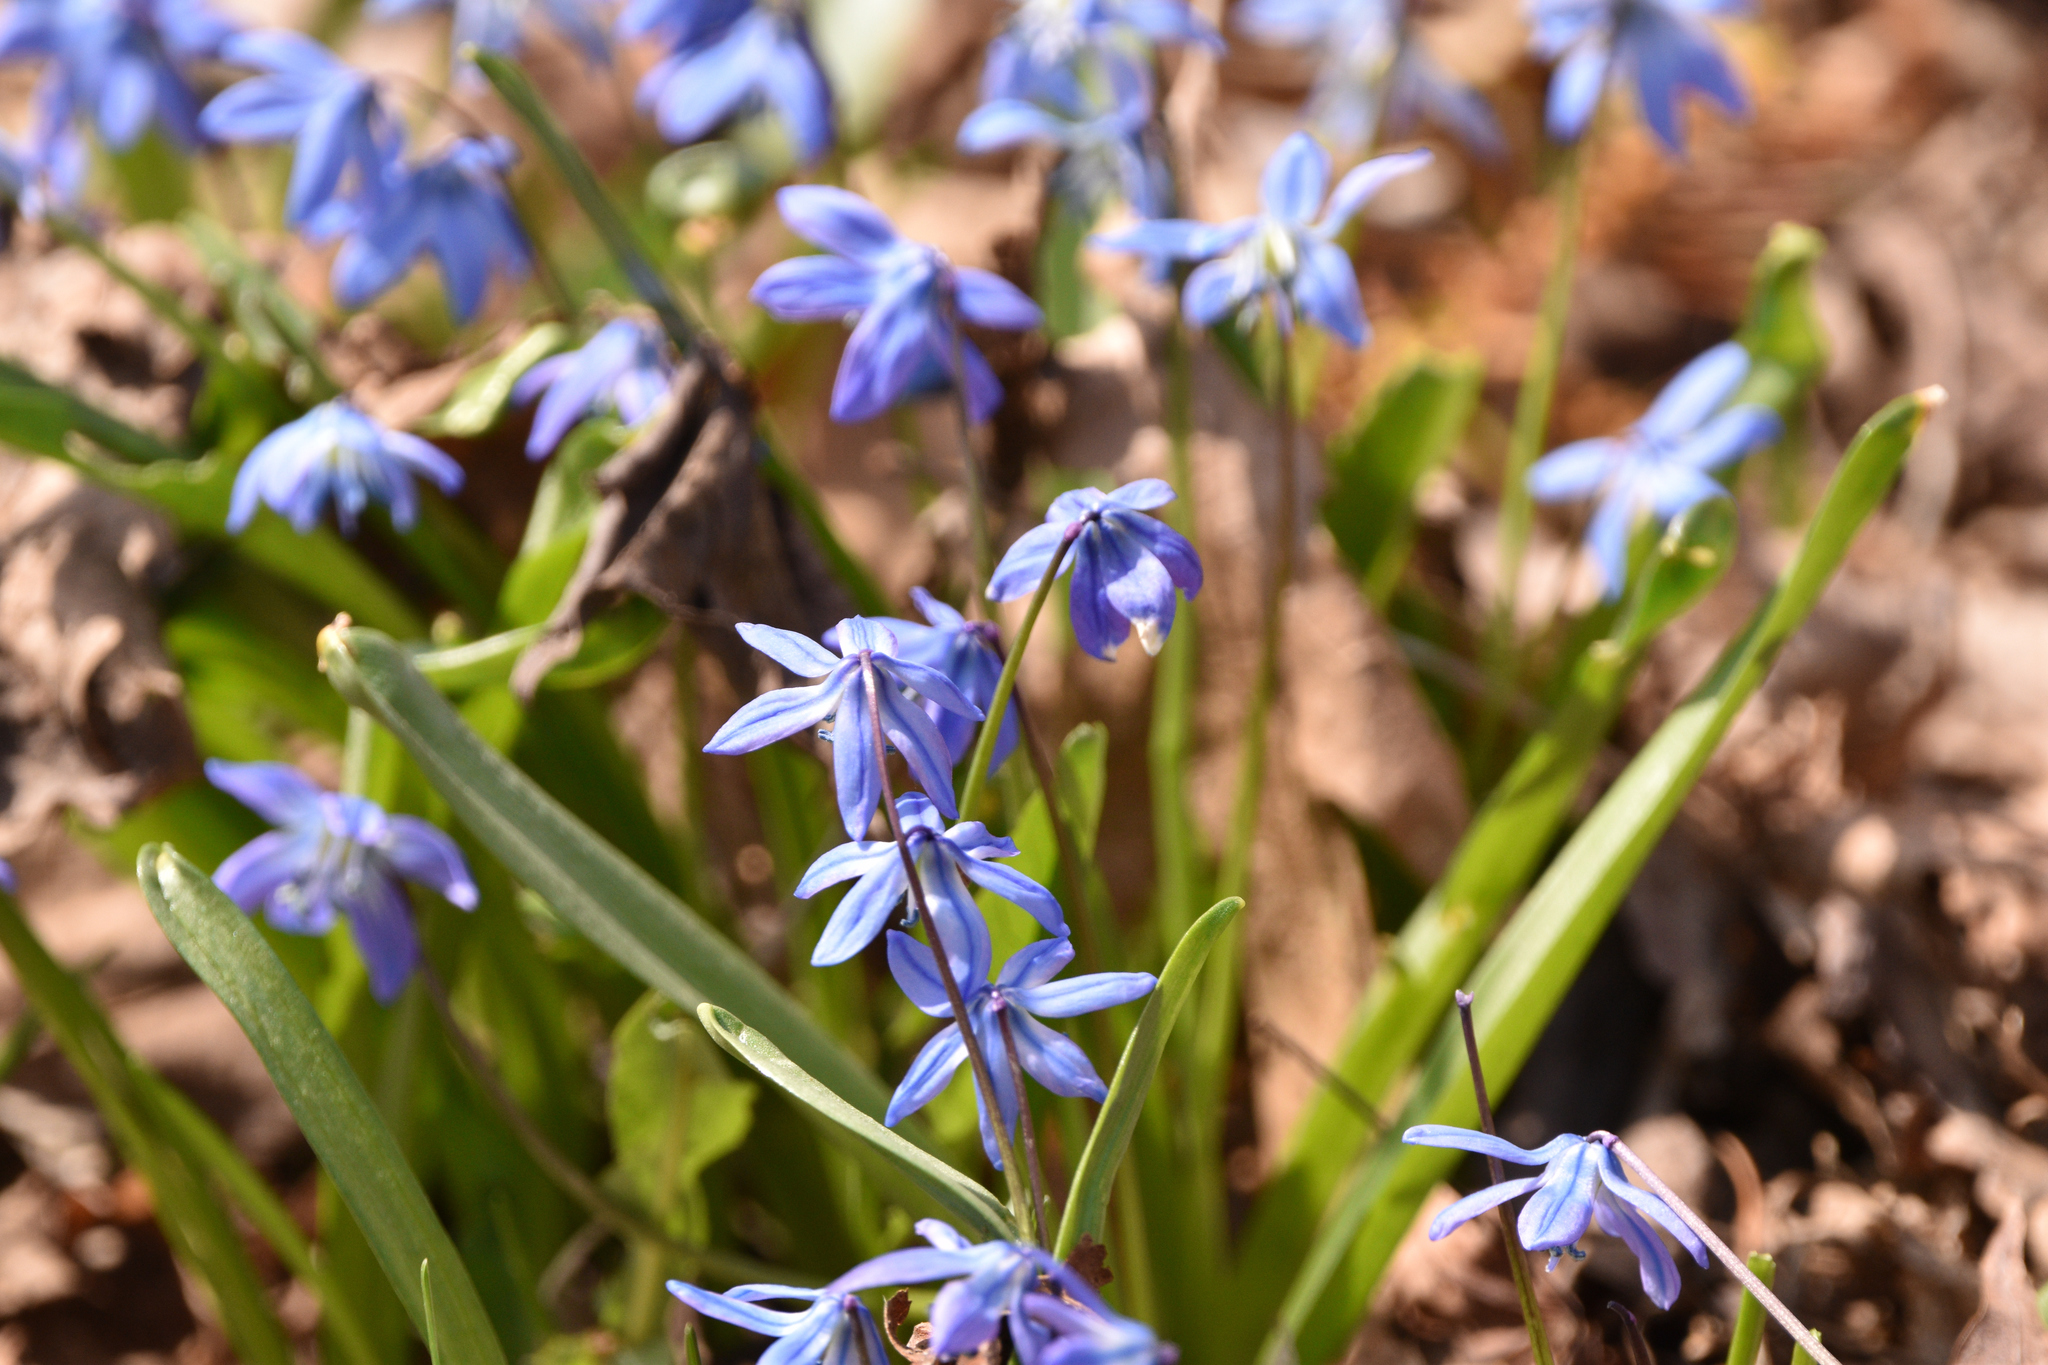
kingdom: Plantae
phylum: Tracheophyta
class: Liliopsida
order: Asparagales
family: Asparagaceae
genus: Scilla
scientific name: Scilla siberica
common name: Siberian squill
